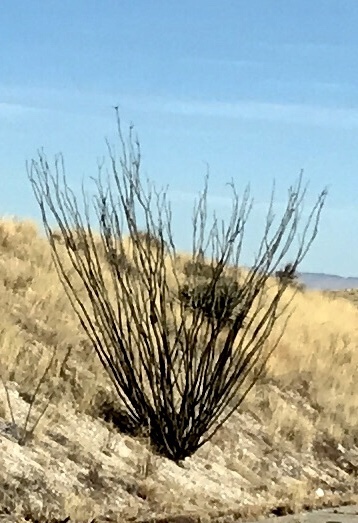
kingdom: Plantae
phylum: Tracheophyta
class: Magnoliopsida
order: Ericales
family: Fouquieriaceae
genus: Fouquieria
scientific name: Fouquieria splendens
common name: Vine-cactus
